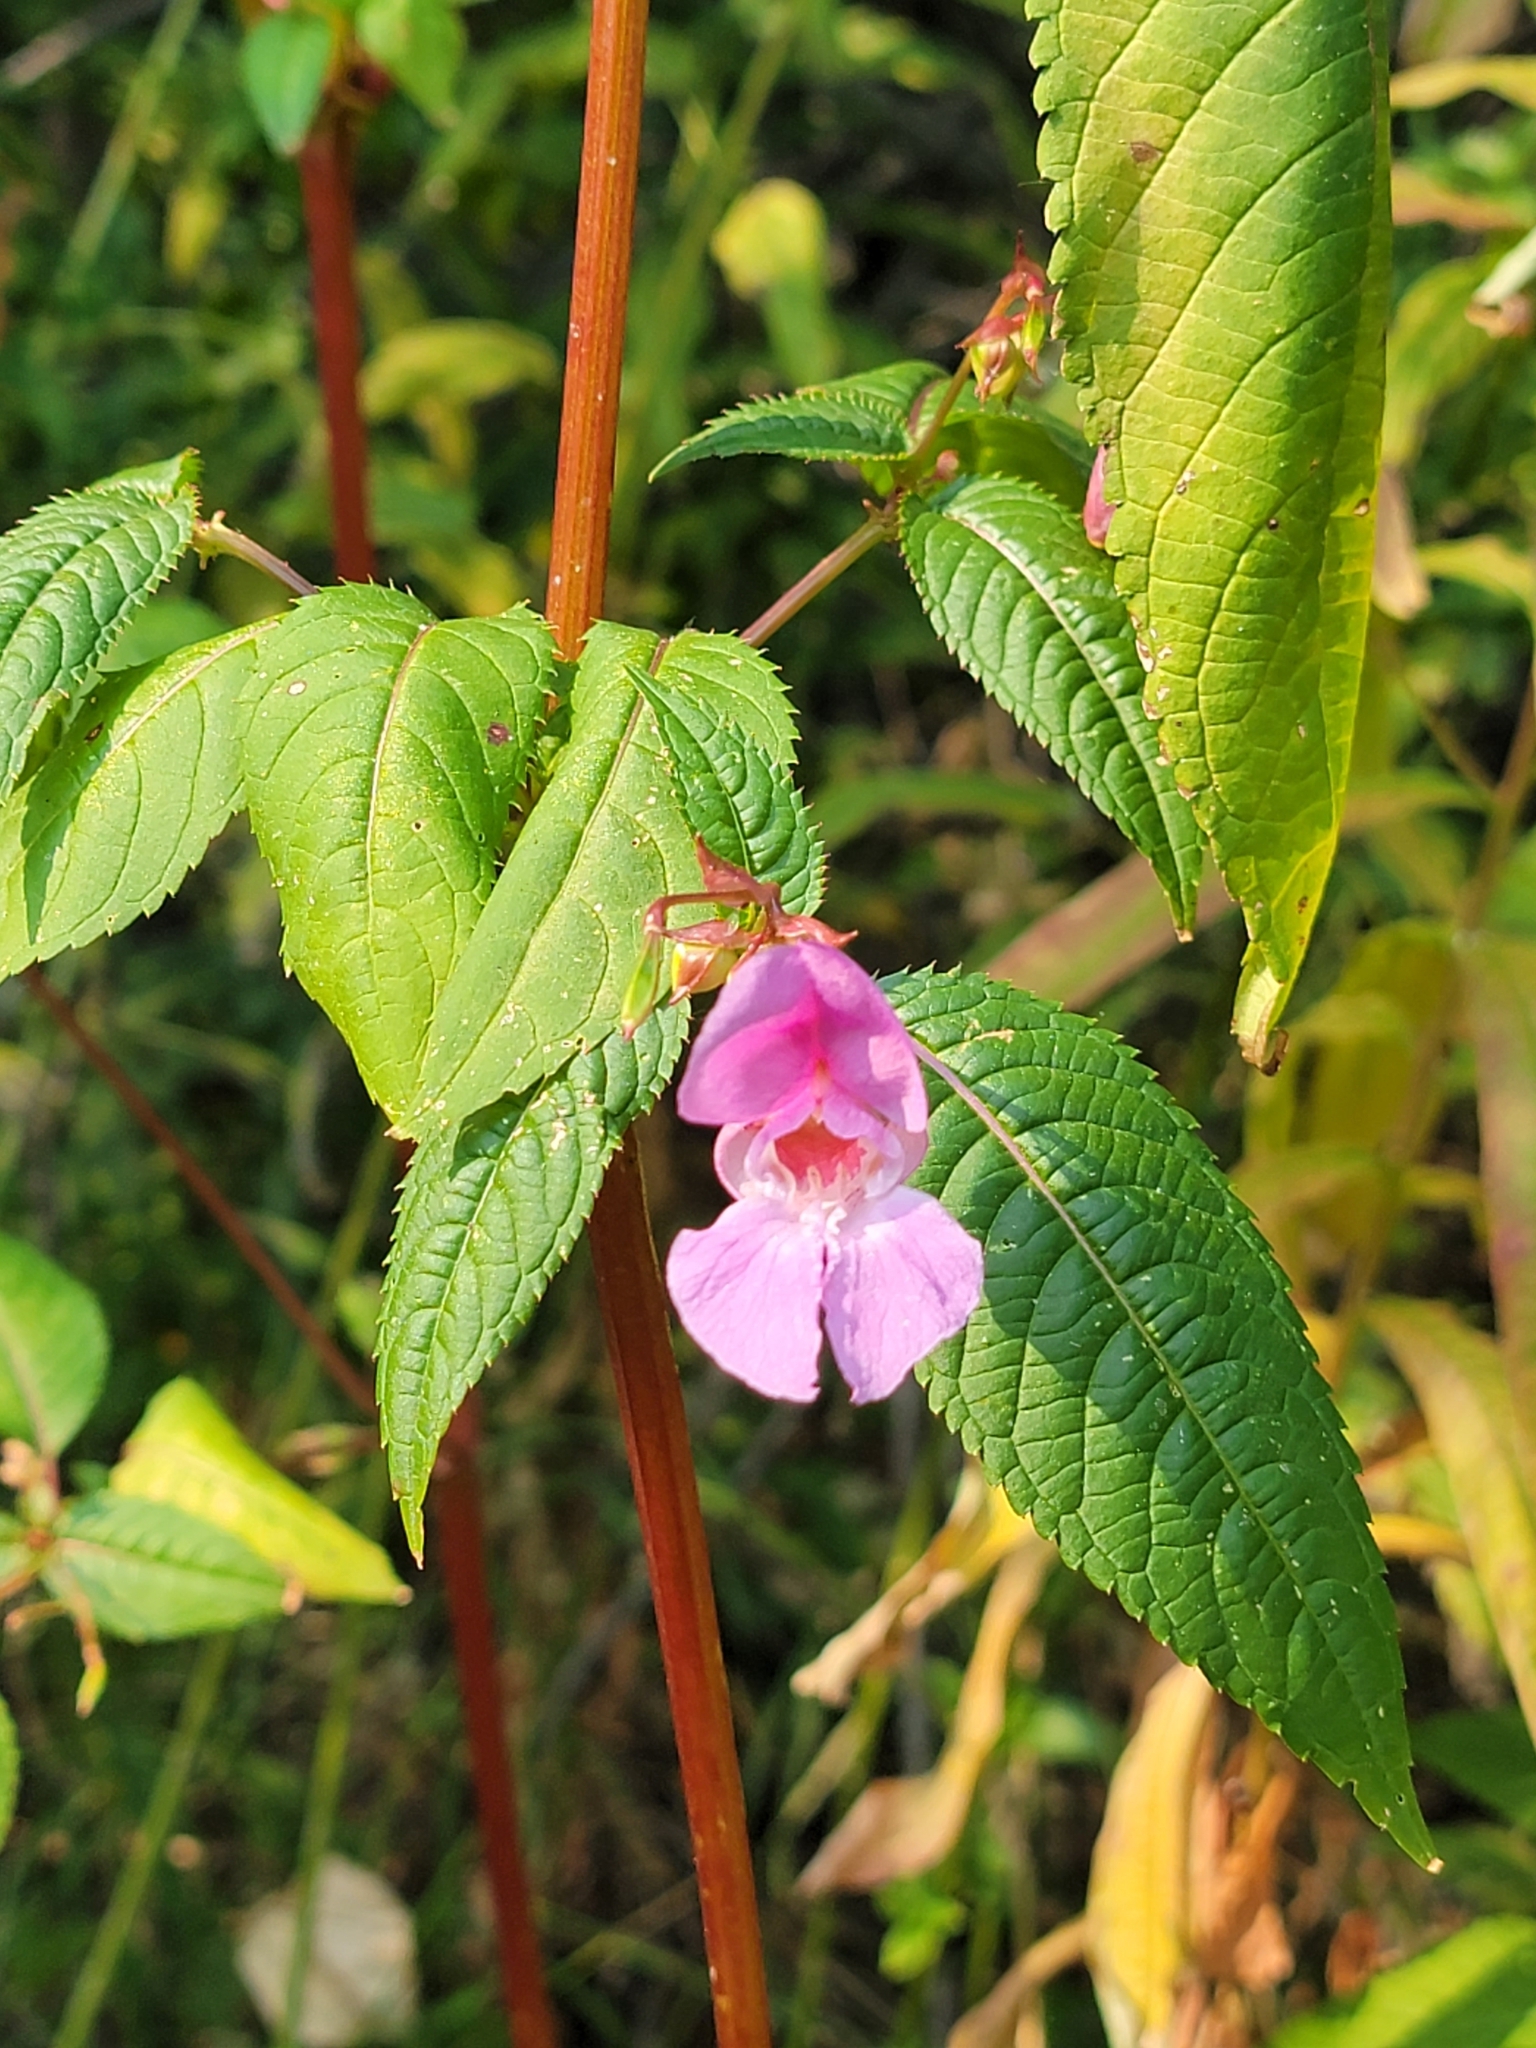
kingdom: Plantae
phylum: Tracheophyta
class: Magnoliopsida
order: Ericales
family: Balsaminaceae
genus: Impatiens
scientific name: Impatiens glandulifera
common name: Himalayan balsam
